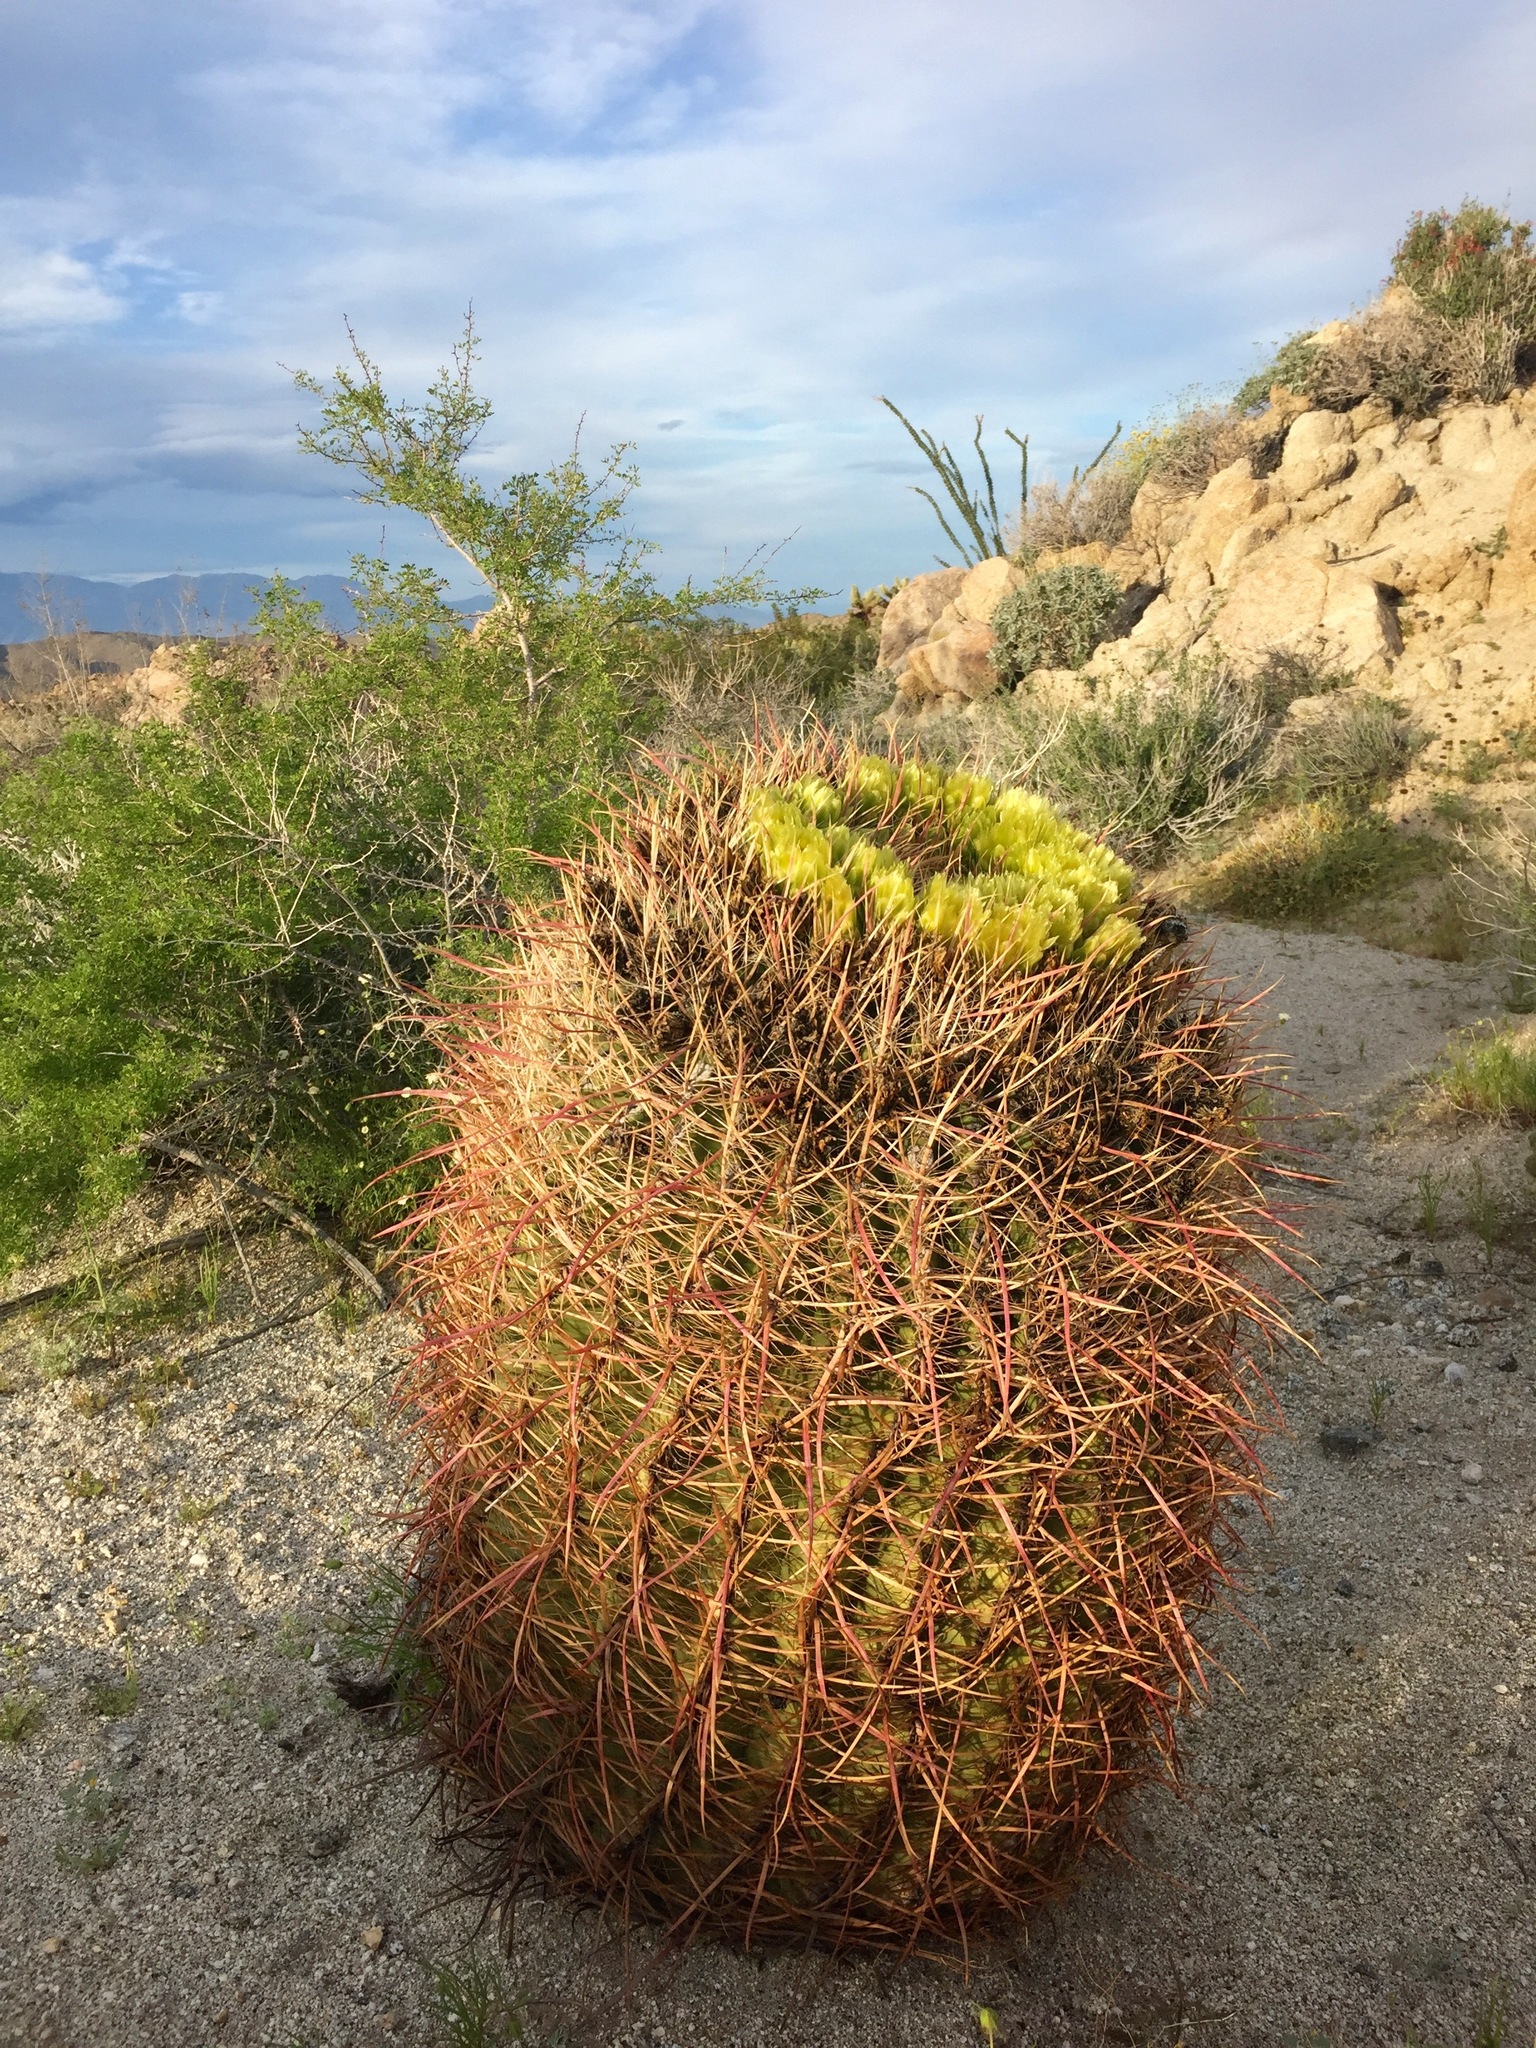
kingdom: Plantae
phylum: Tracheophyta
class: Magnoliopsida
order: Caryophyllales
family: Cactaceae
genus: Ferocactus
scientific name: Ferocactus cylindraceus
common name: California barrel cactus
